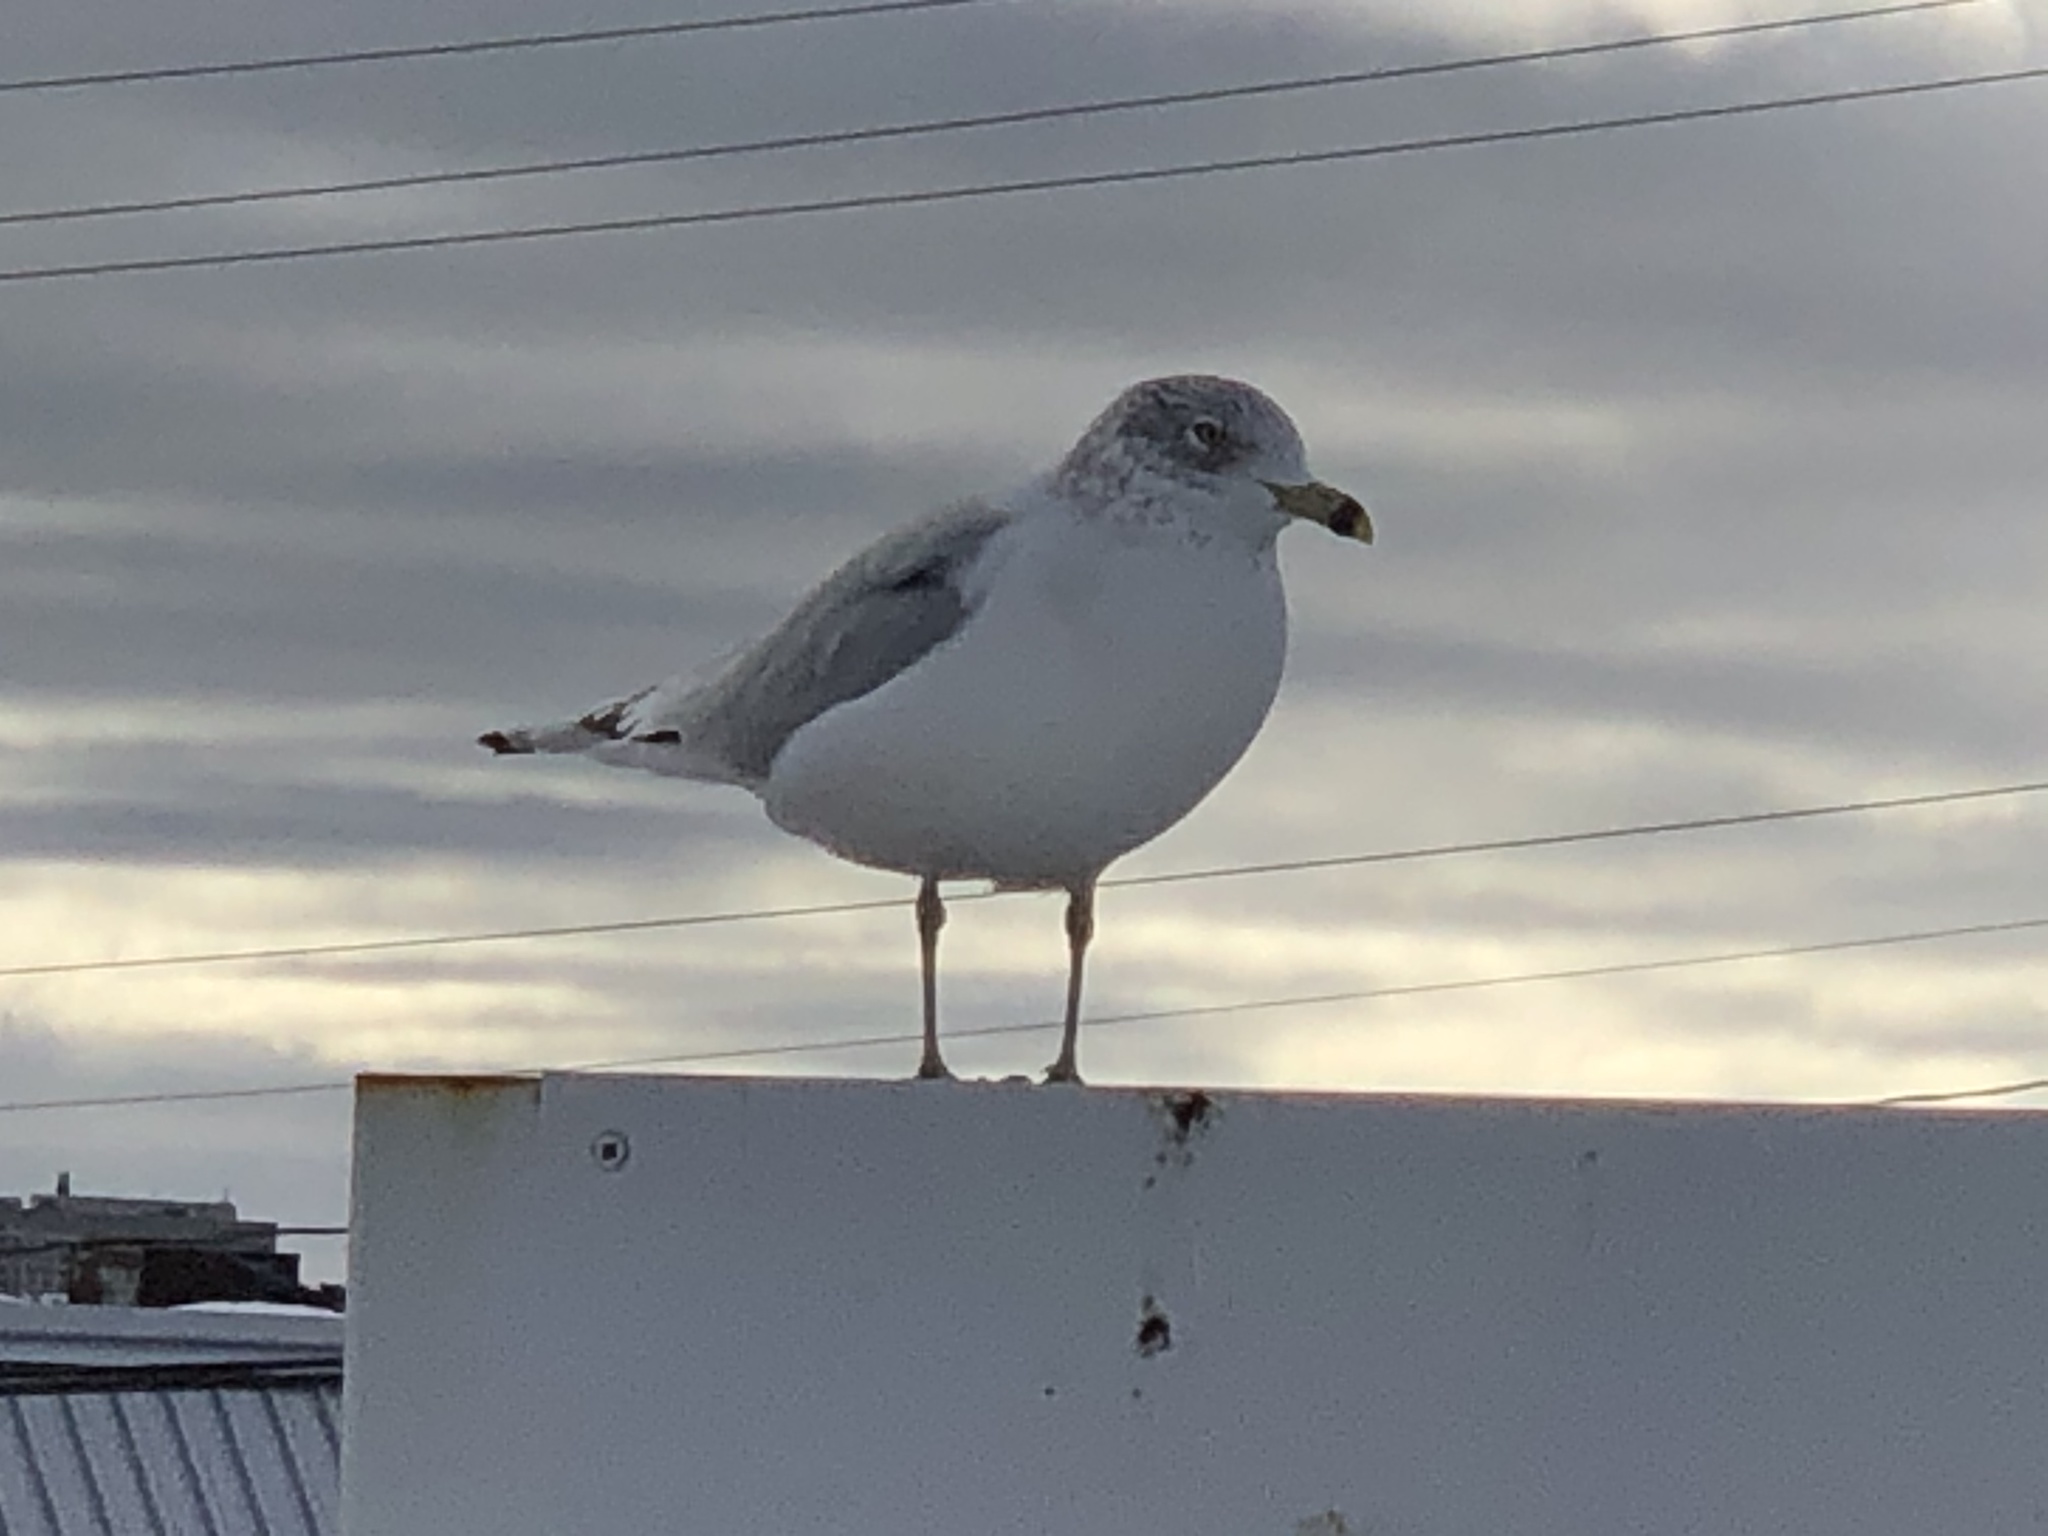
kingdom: Animalia
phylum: Chordata
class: Aves
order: Charadriiformes
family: Laridae
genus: Larus
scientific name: Larus delawarensis
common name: Ring-billed gull
